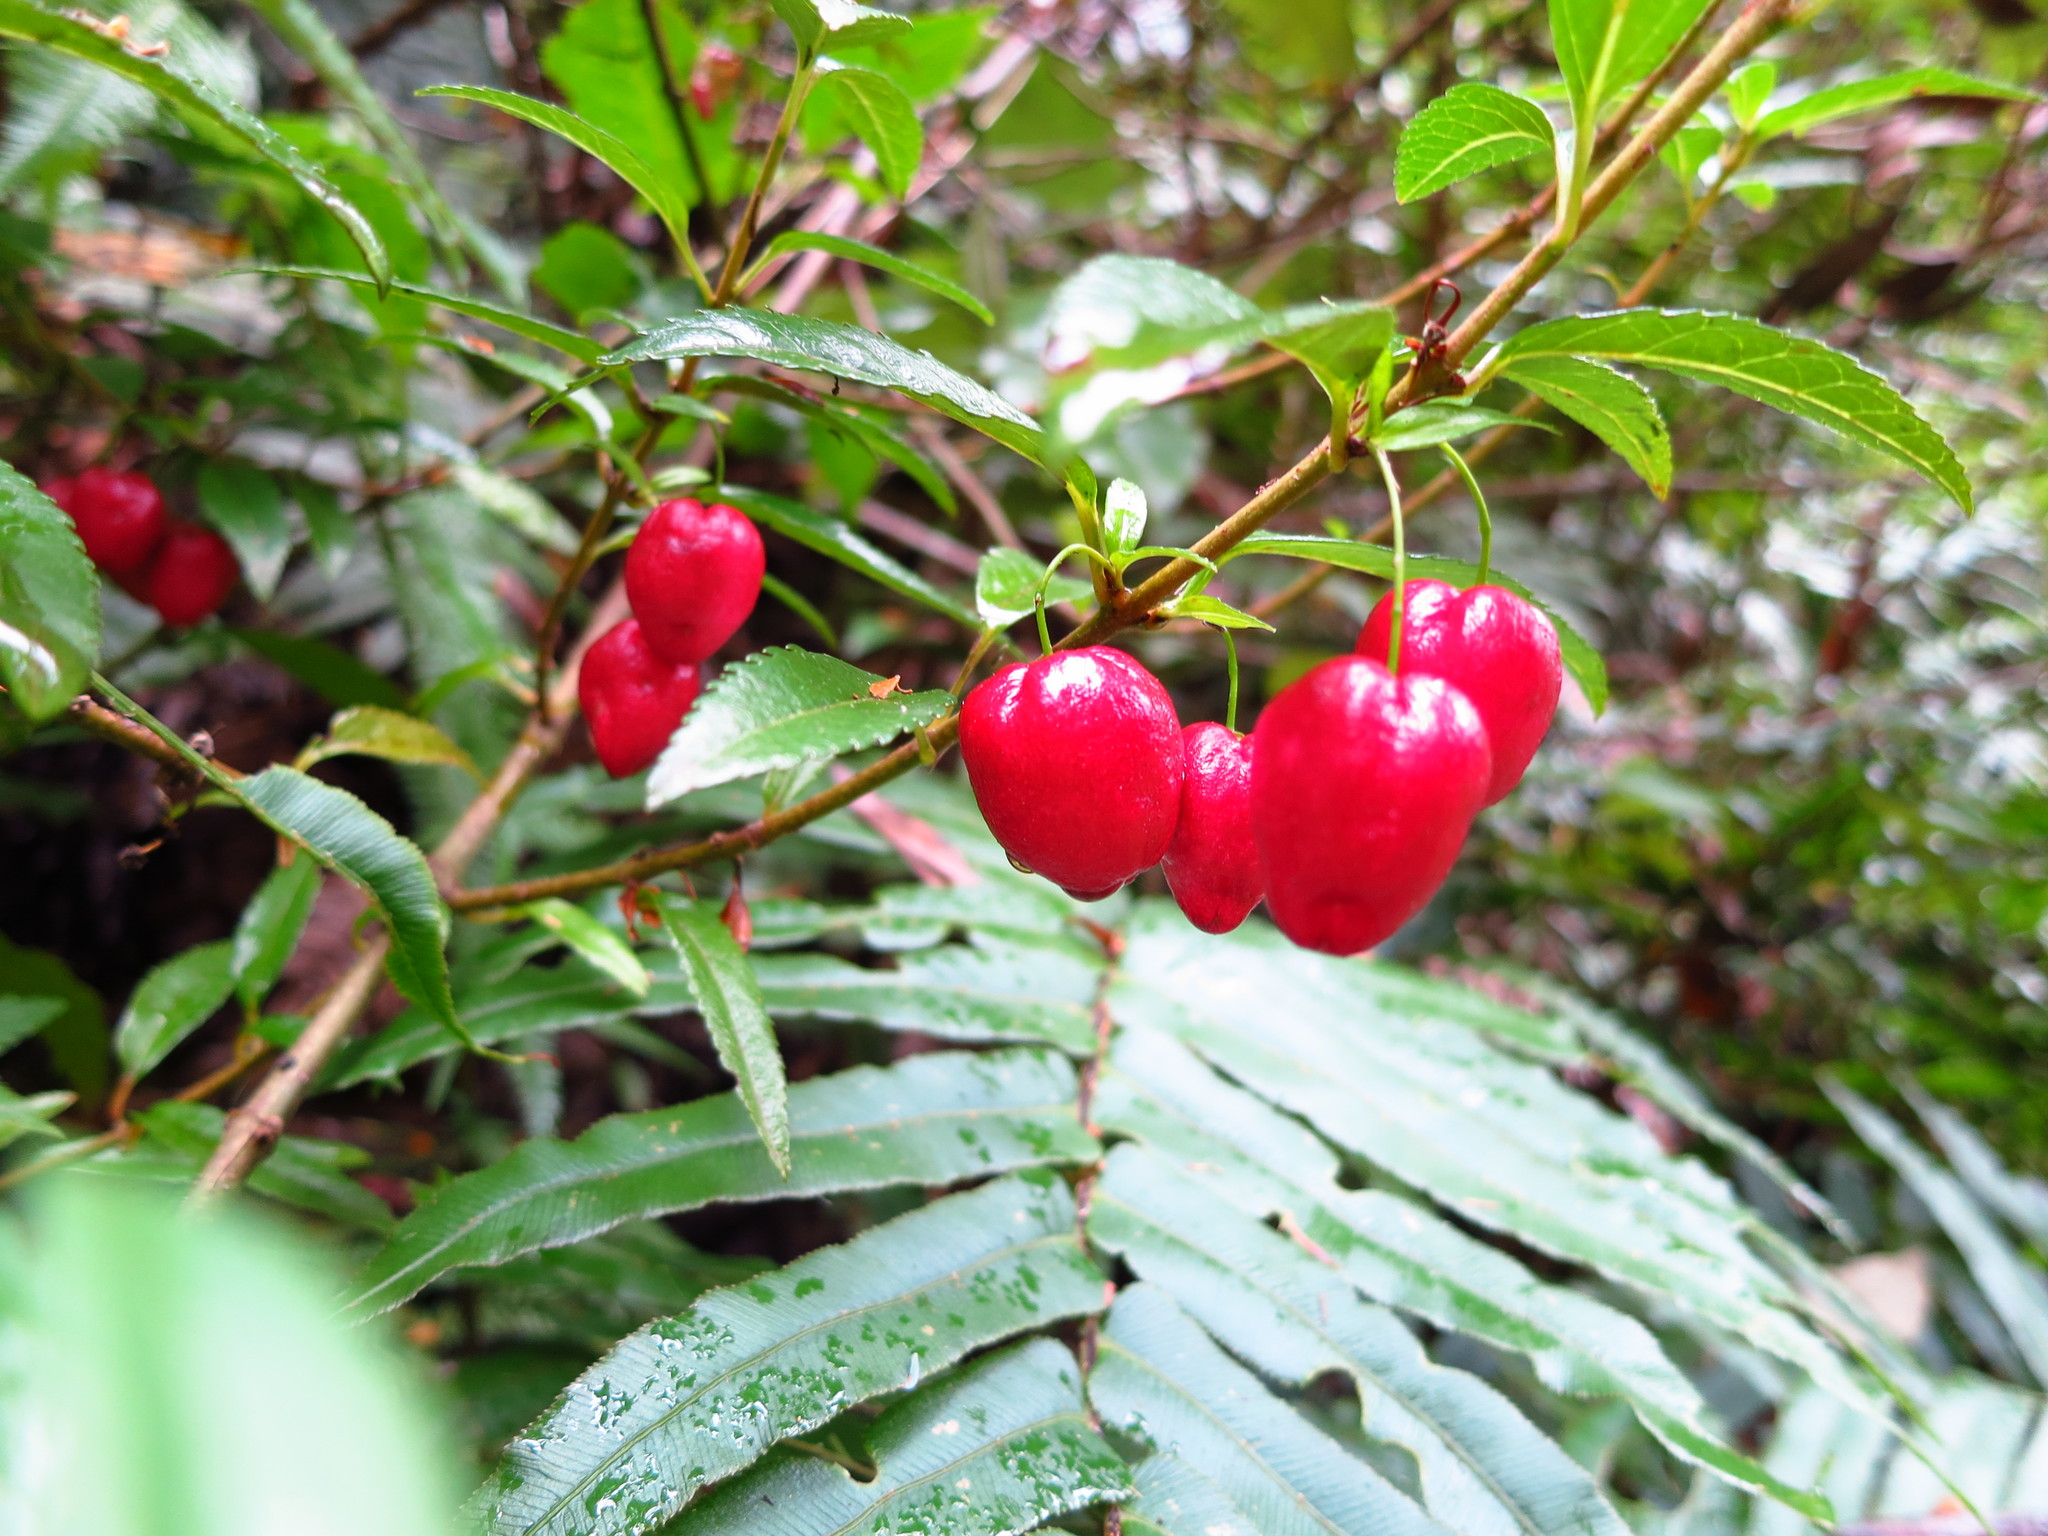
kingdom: Plantae
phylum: Tracheophyta
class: Magnoliopsida
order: Oxalidales
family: Elaeocarpaceae
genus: Aristotelia
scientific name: Aristotelia peduncularis
